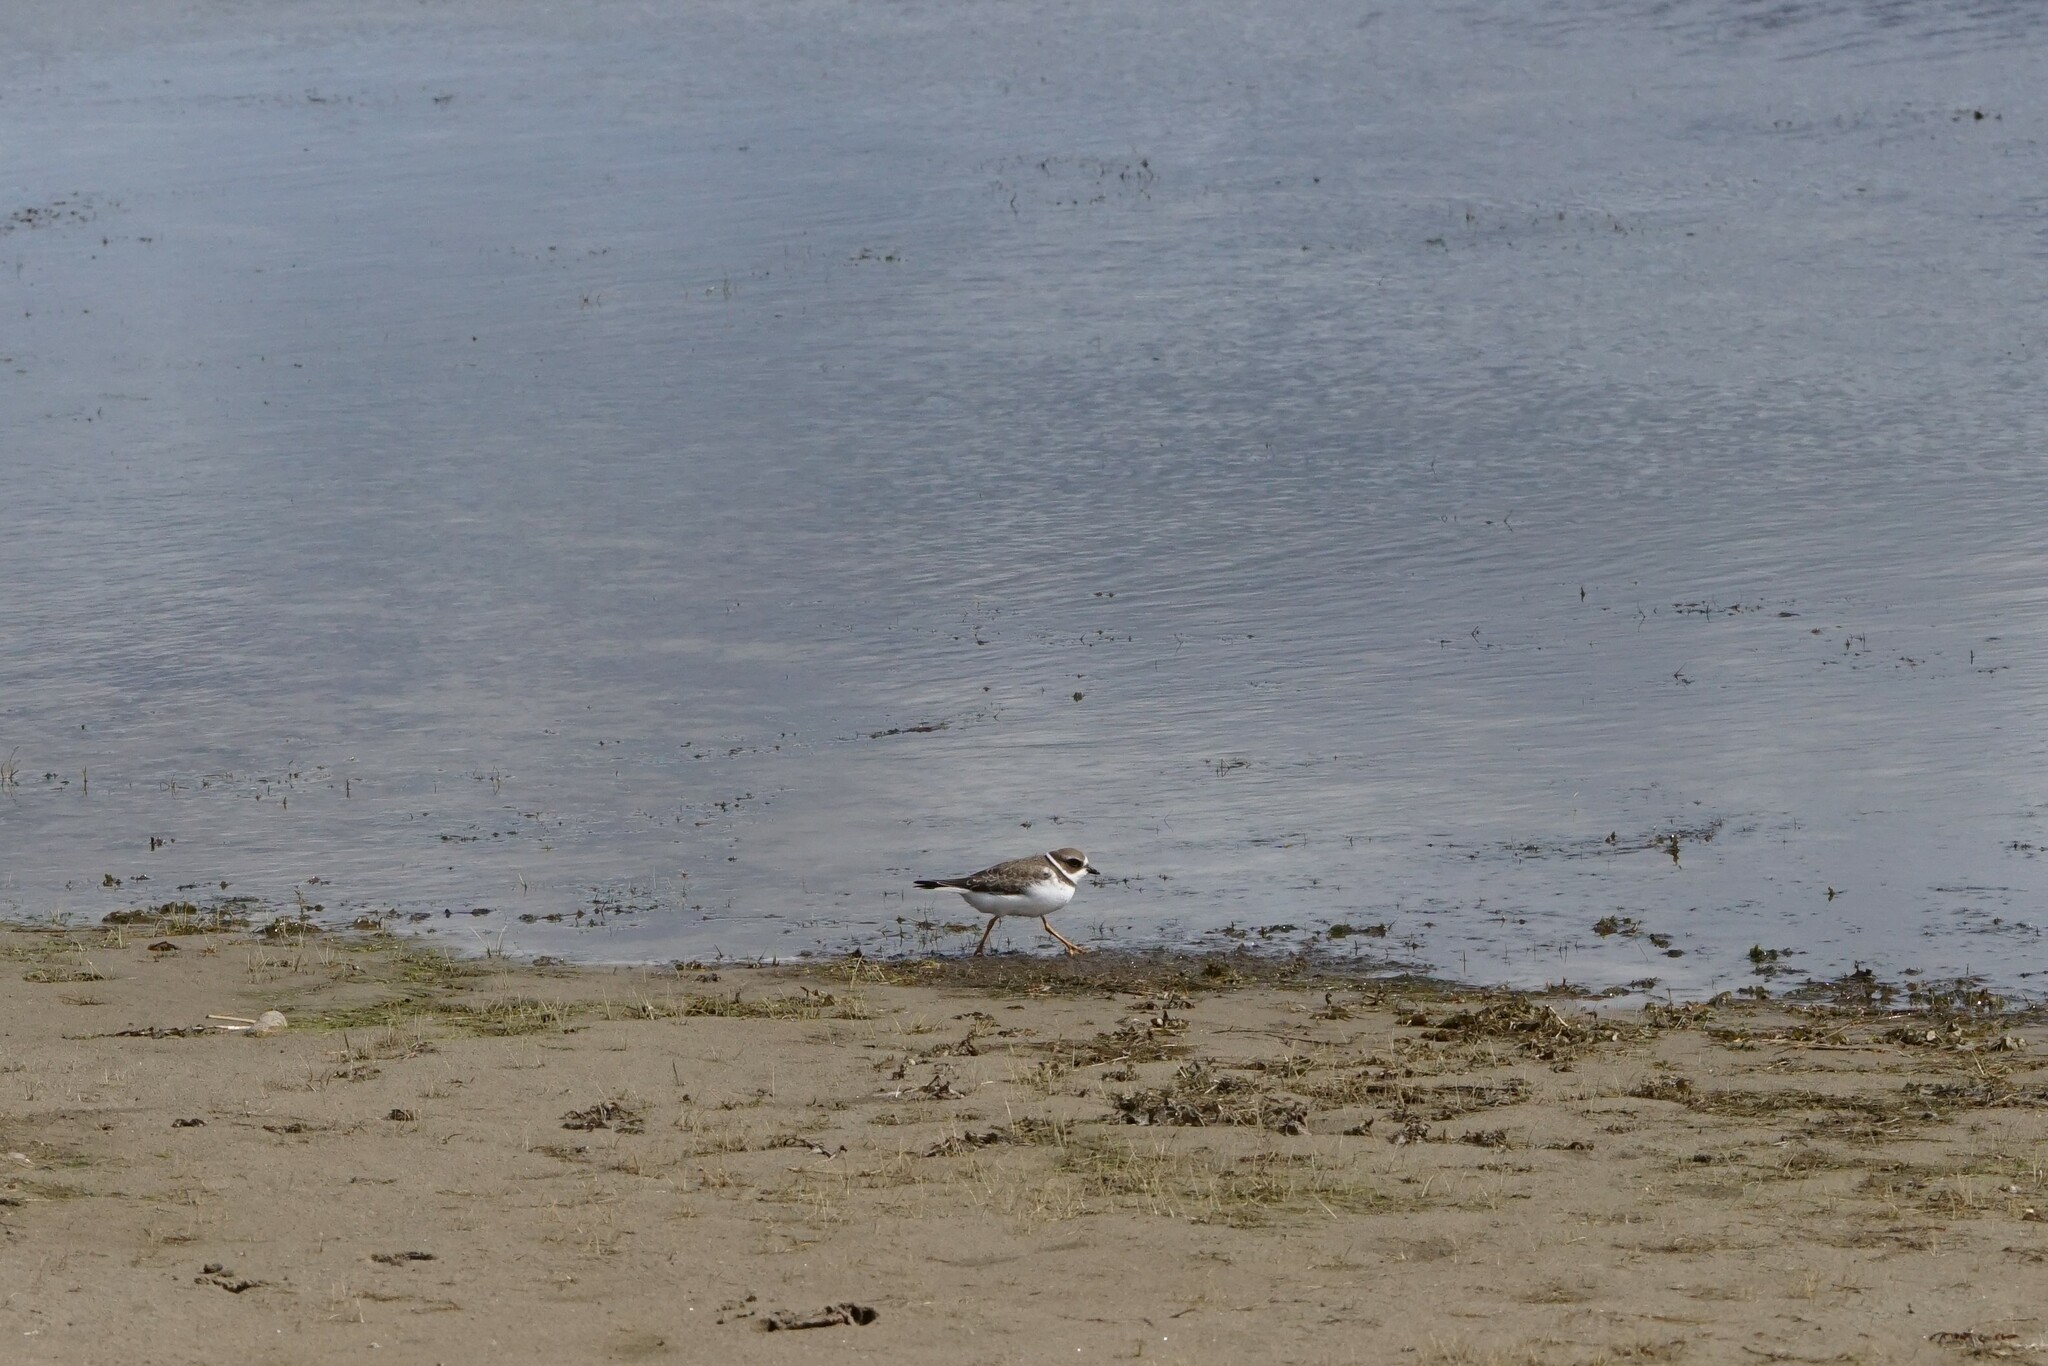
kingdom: Animalia
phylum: Chordata
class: Aves
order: Charadriiformes
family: Charadriidae
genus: Charadrius
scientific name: Charadrius semipalmatus
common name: Semipalmated plover
